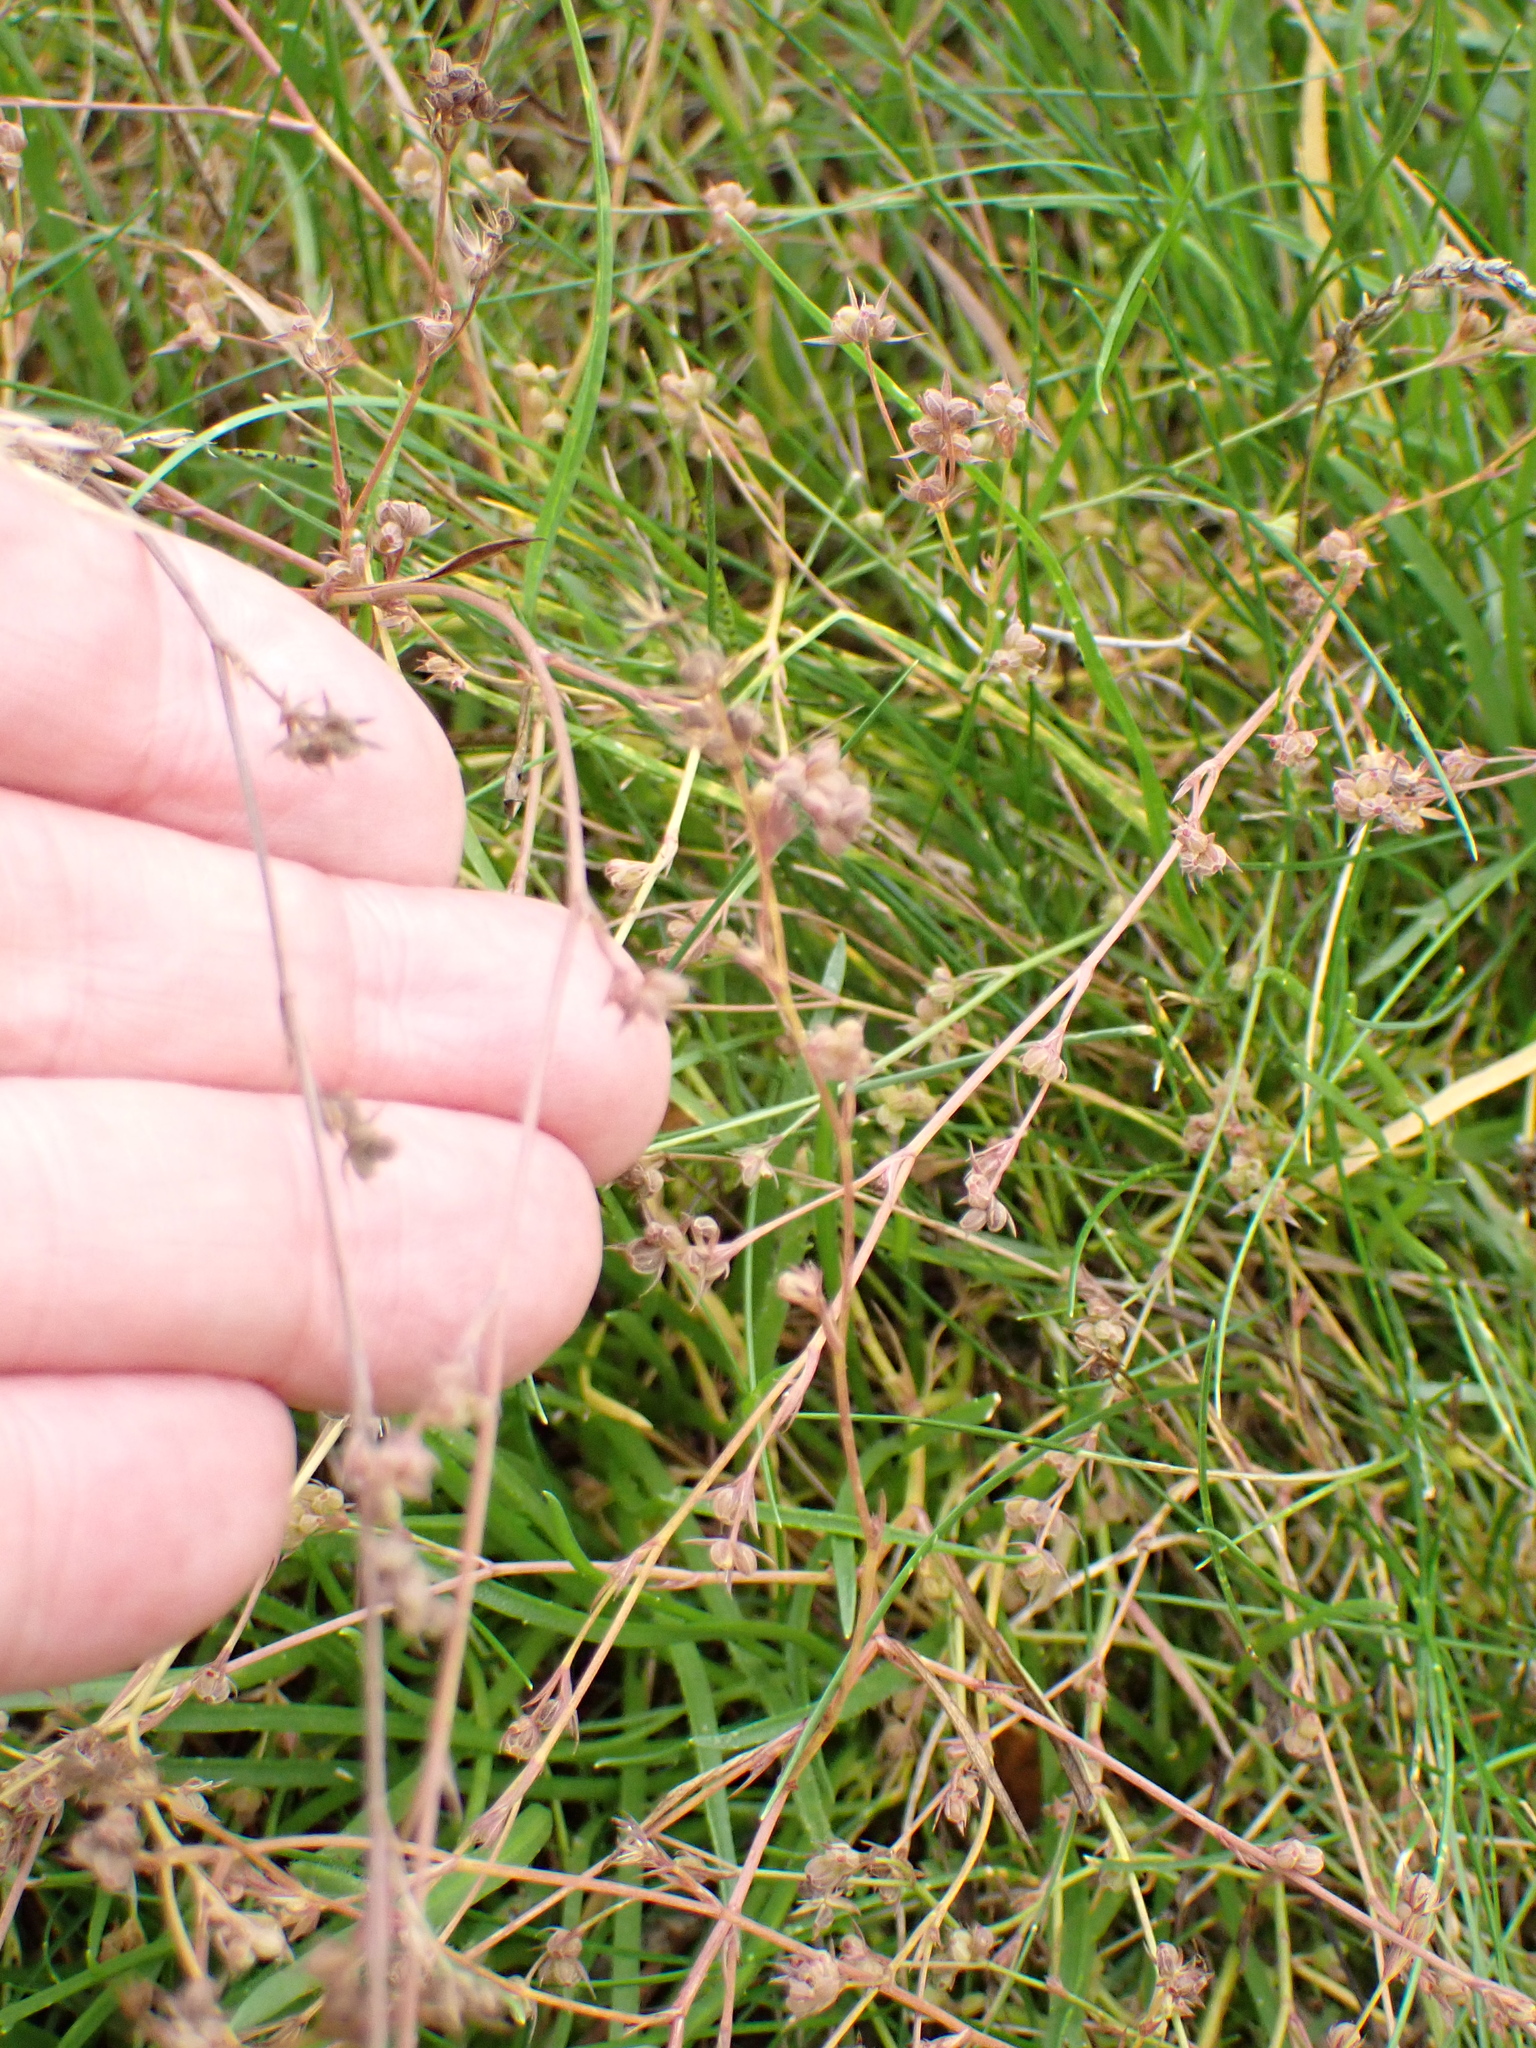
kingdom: Plantae
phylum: Tracheophyta
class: Magnoliopsida
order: Apiales
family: Apiaceae
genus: Bupleurum
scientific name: Bupleurum tenuissimum
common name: Slender hare's-ear
